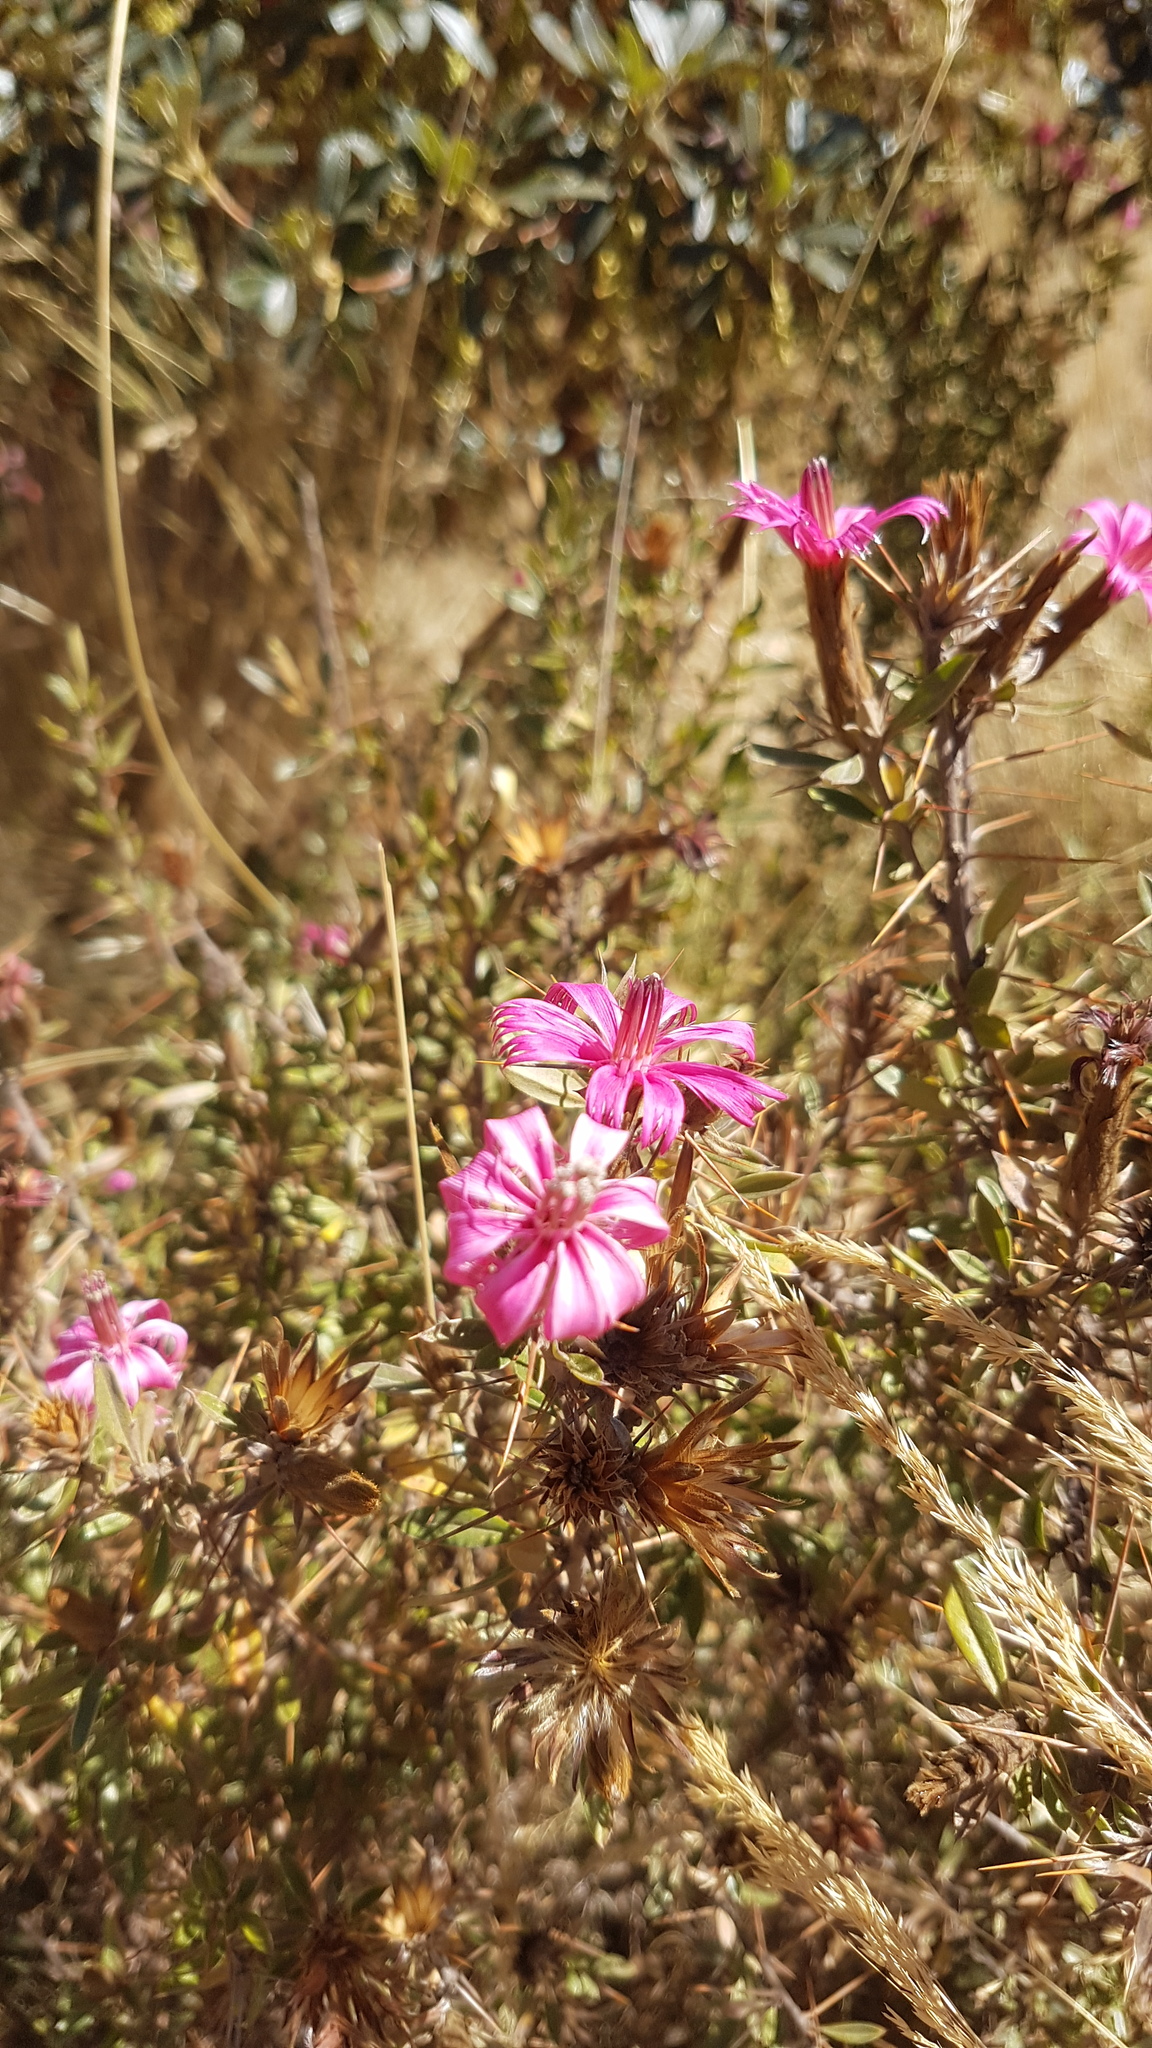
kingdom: Plantae
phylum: Tracheophyta
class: Magnoliopsida
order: Asterales
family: Asteraceae
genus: Barnadesia
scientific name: Barnadesia horrida
